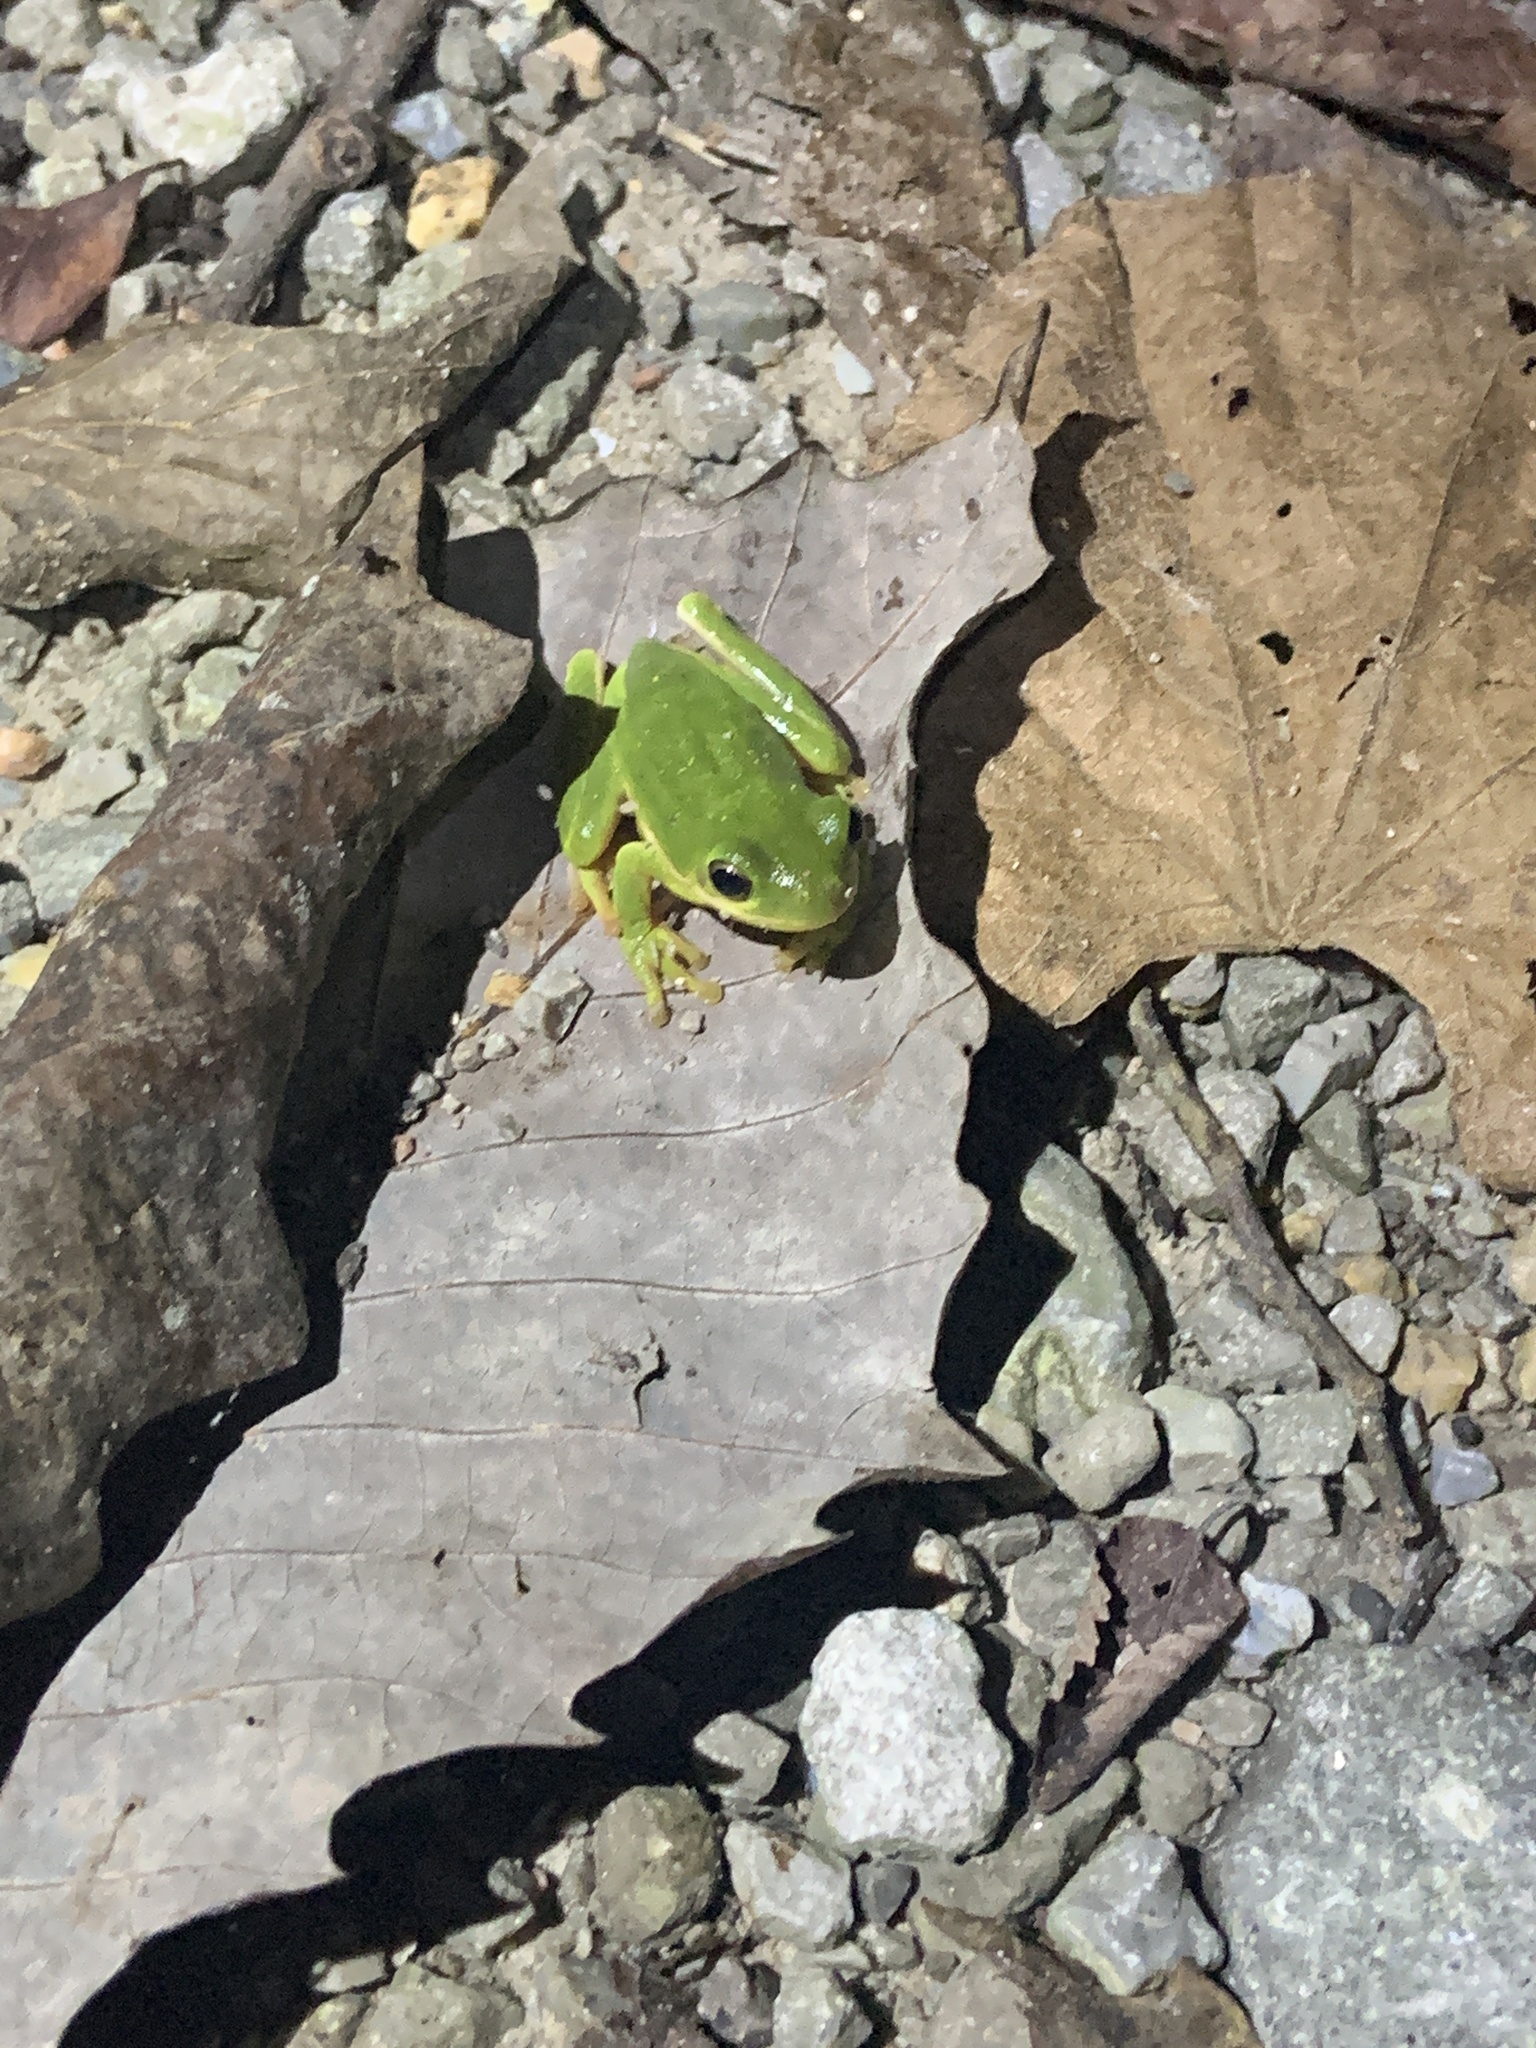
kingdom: Animalia
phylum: Chordata
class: Amphibia
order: Anura
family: Hylidae
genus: Dryophytes
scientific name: Dryophytes cinereus
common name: Green treefrog
